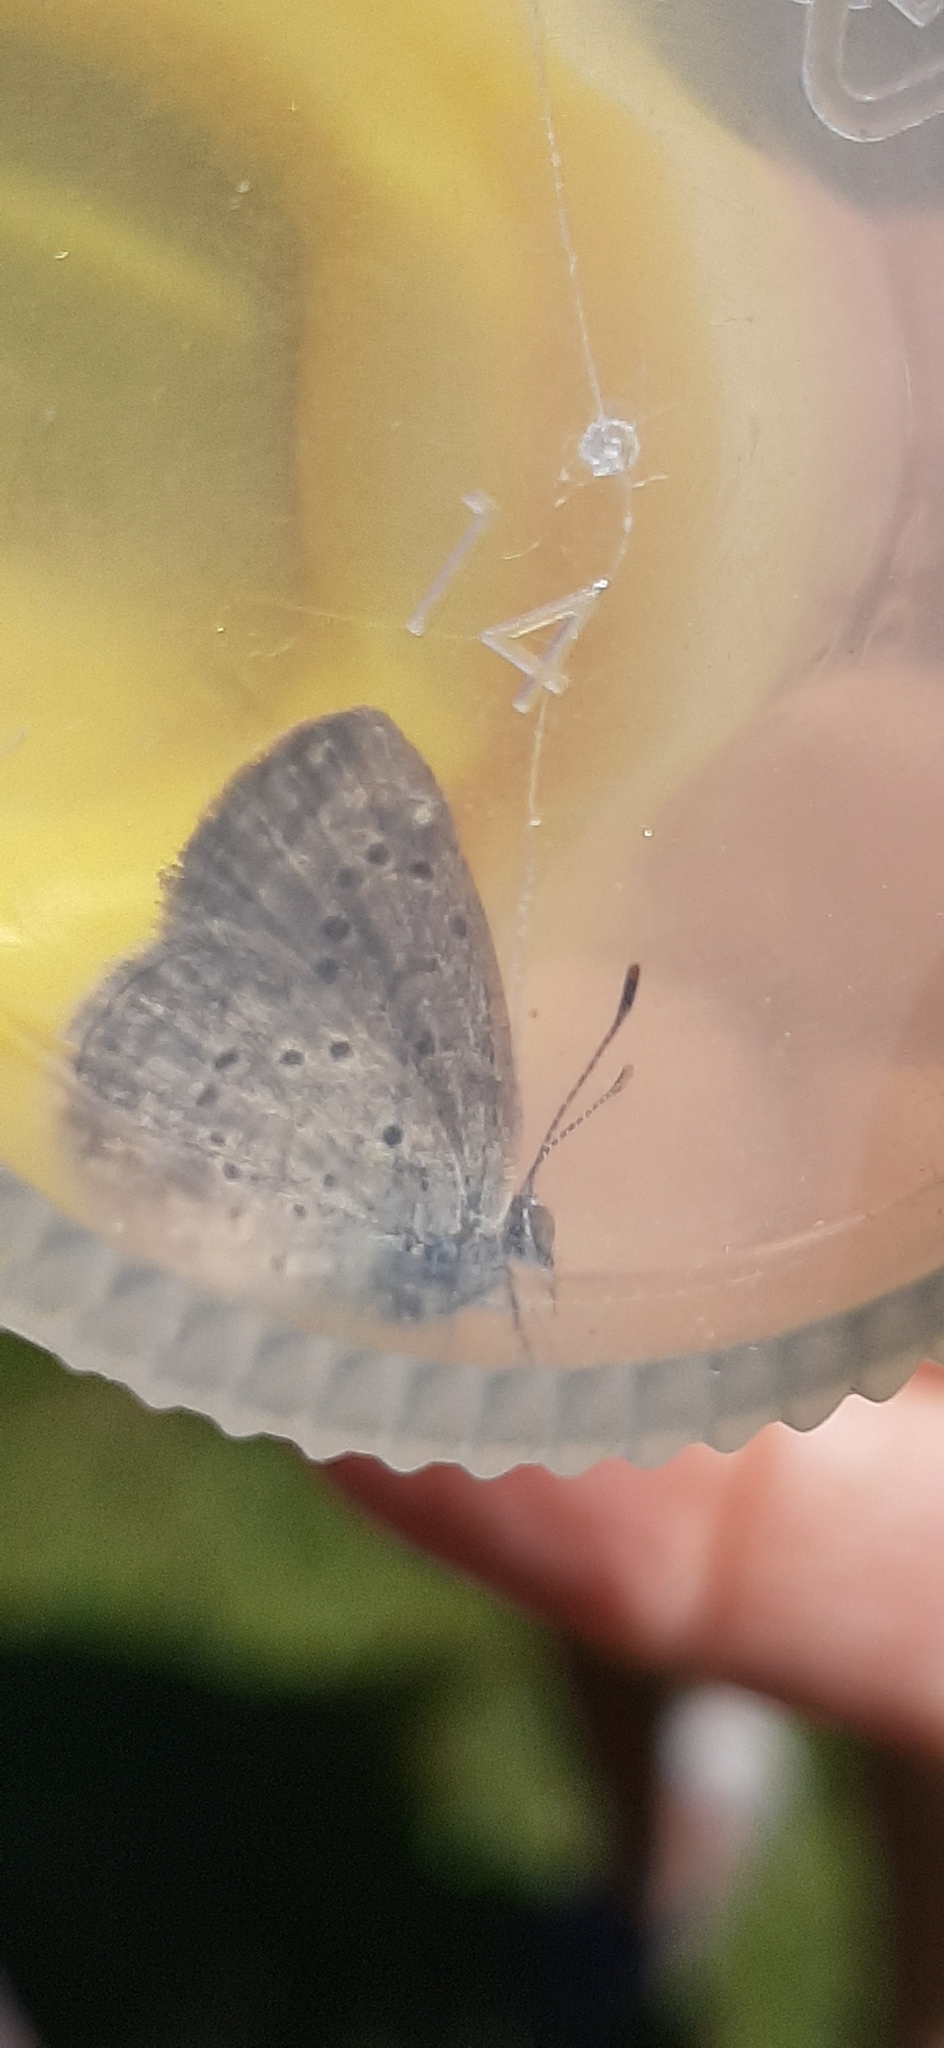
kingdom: Animalia
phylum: Arthropoda
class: Insecta
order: Lepidoptera
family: Lycaenidae
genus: Zizeeria
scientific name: Zizeeria knysna
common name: African grass blue
